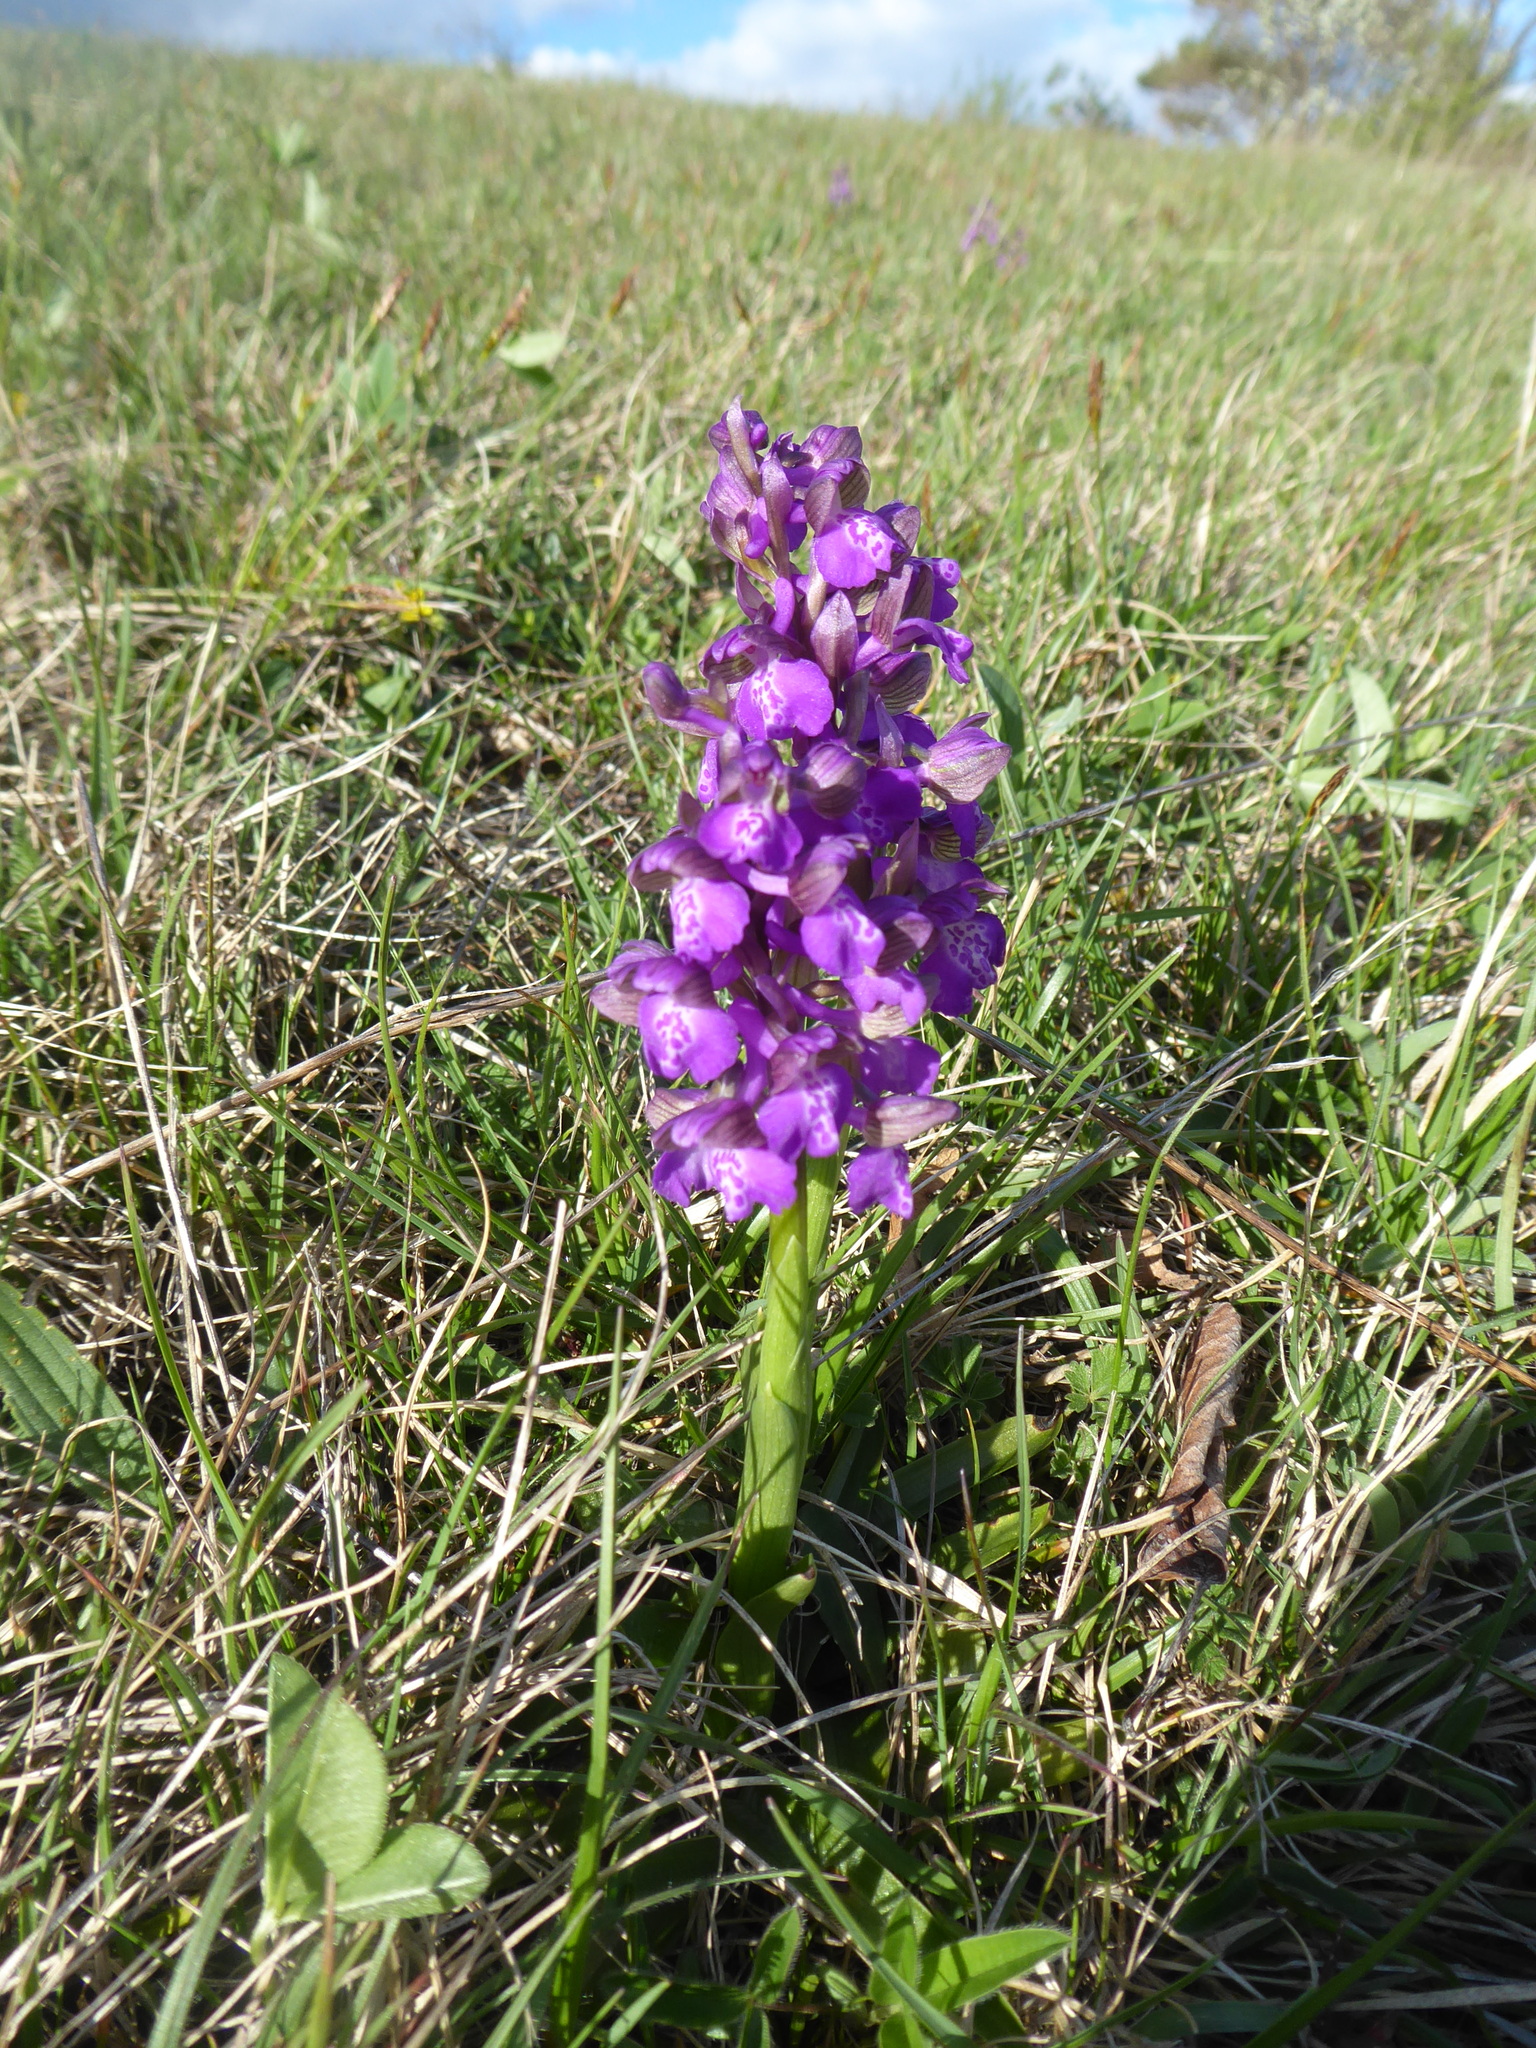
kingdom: Plantae
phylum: Tracheophyta
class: Liliopsida
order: Asparagales
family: Orchidaceae
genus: Anacamptis
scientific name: Anacamptis morio
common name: Green-winged orchid
